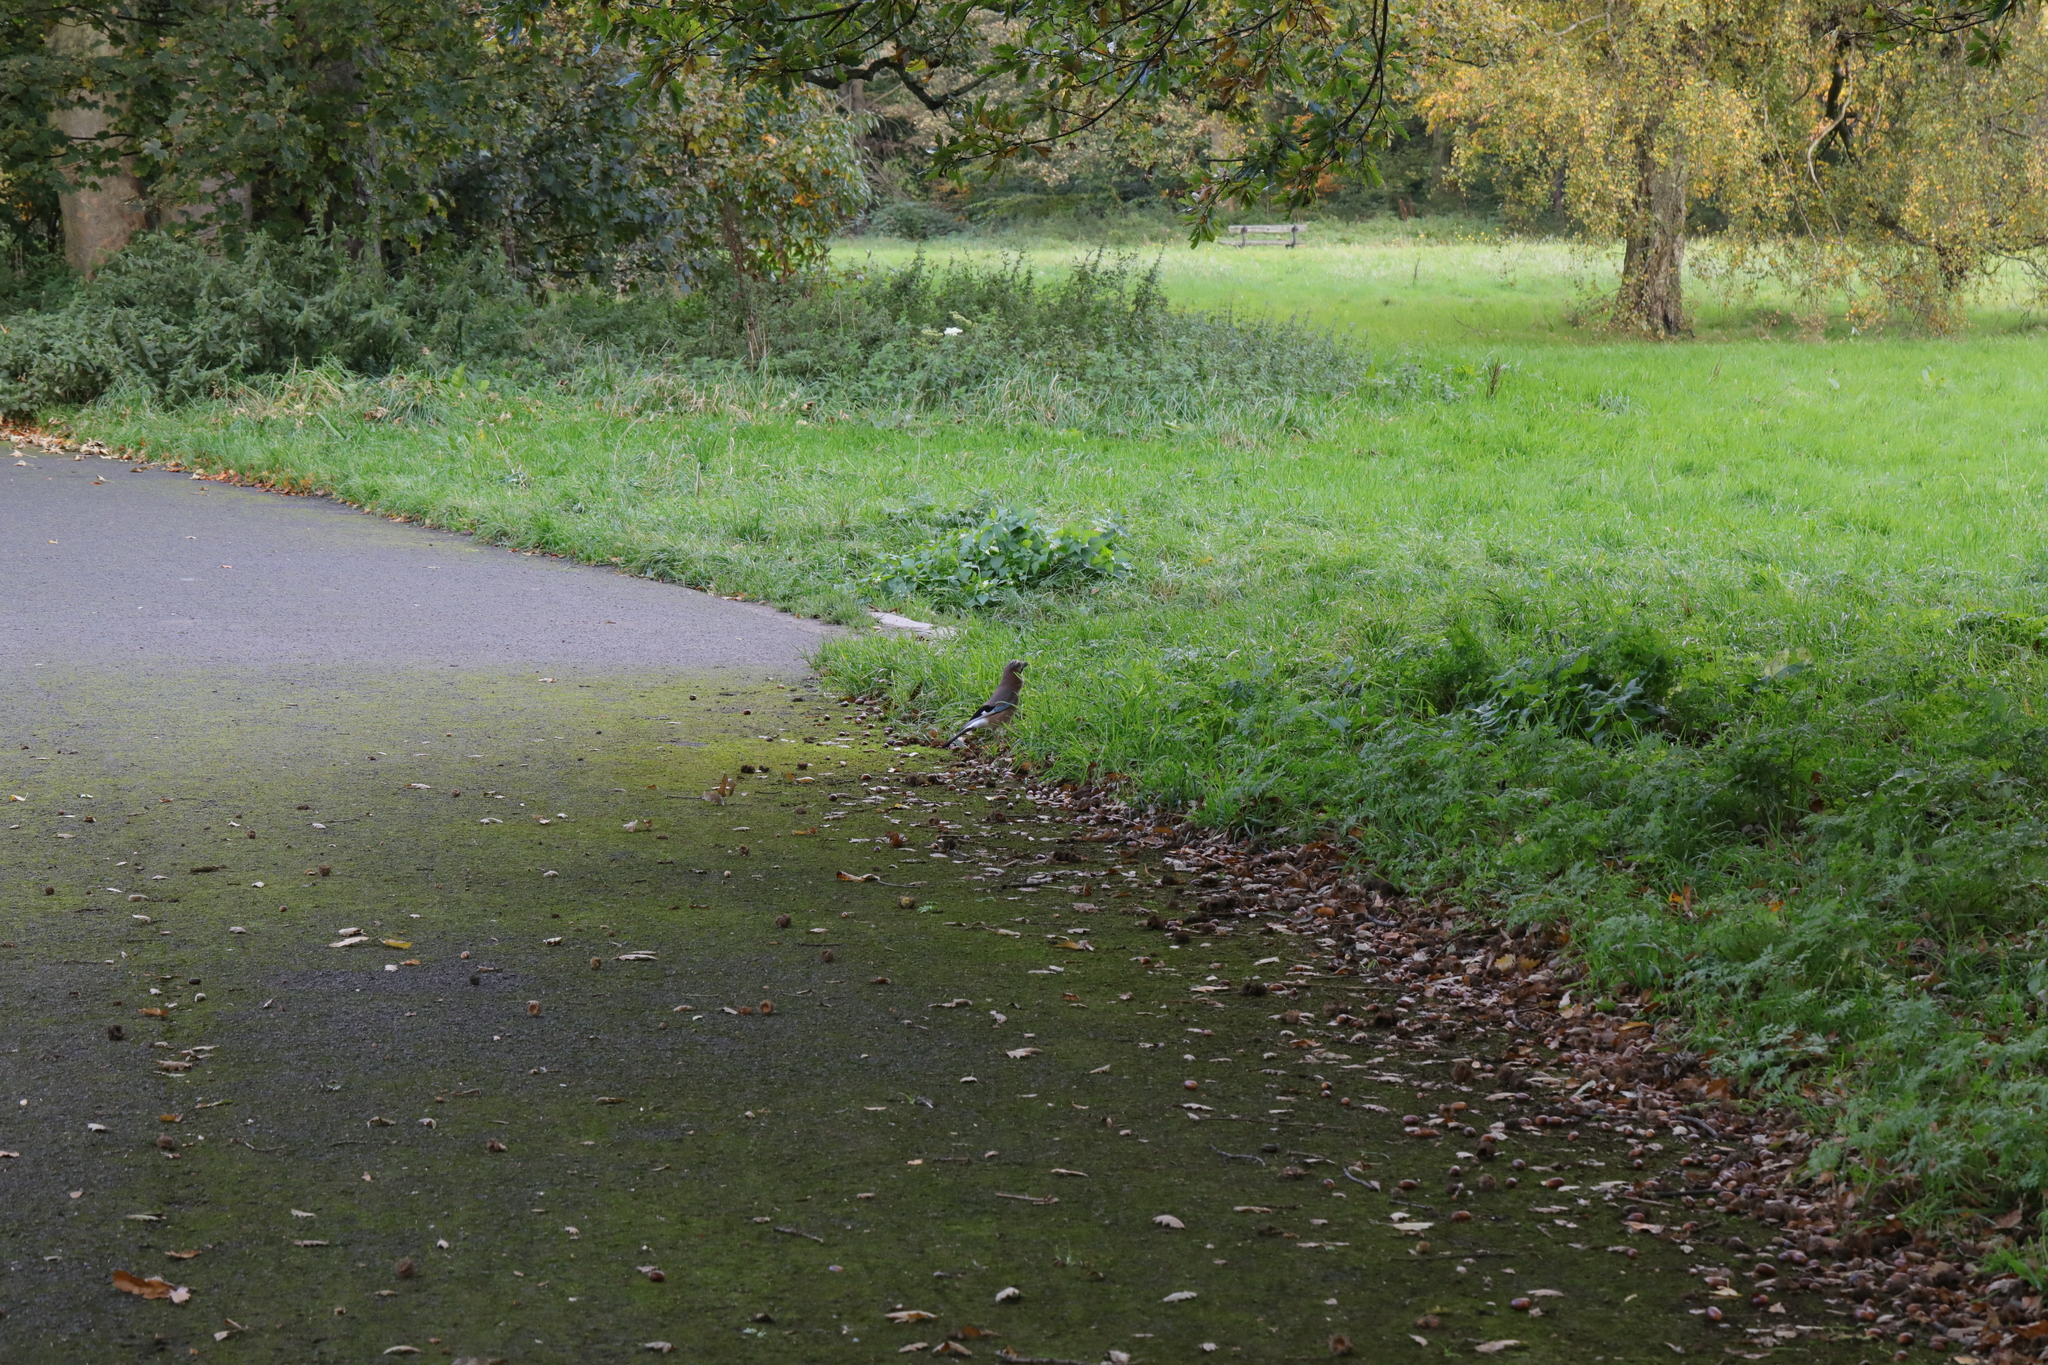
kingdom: Animalia
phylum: Chordata
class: Aves
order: Passeriformes
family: Corvidae
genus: Garrulus
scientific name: Garrulus glandarius
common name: Eurasian jay
